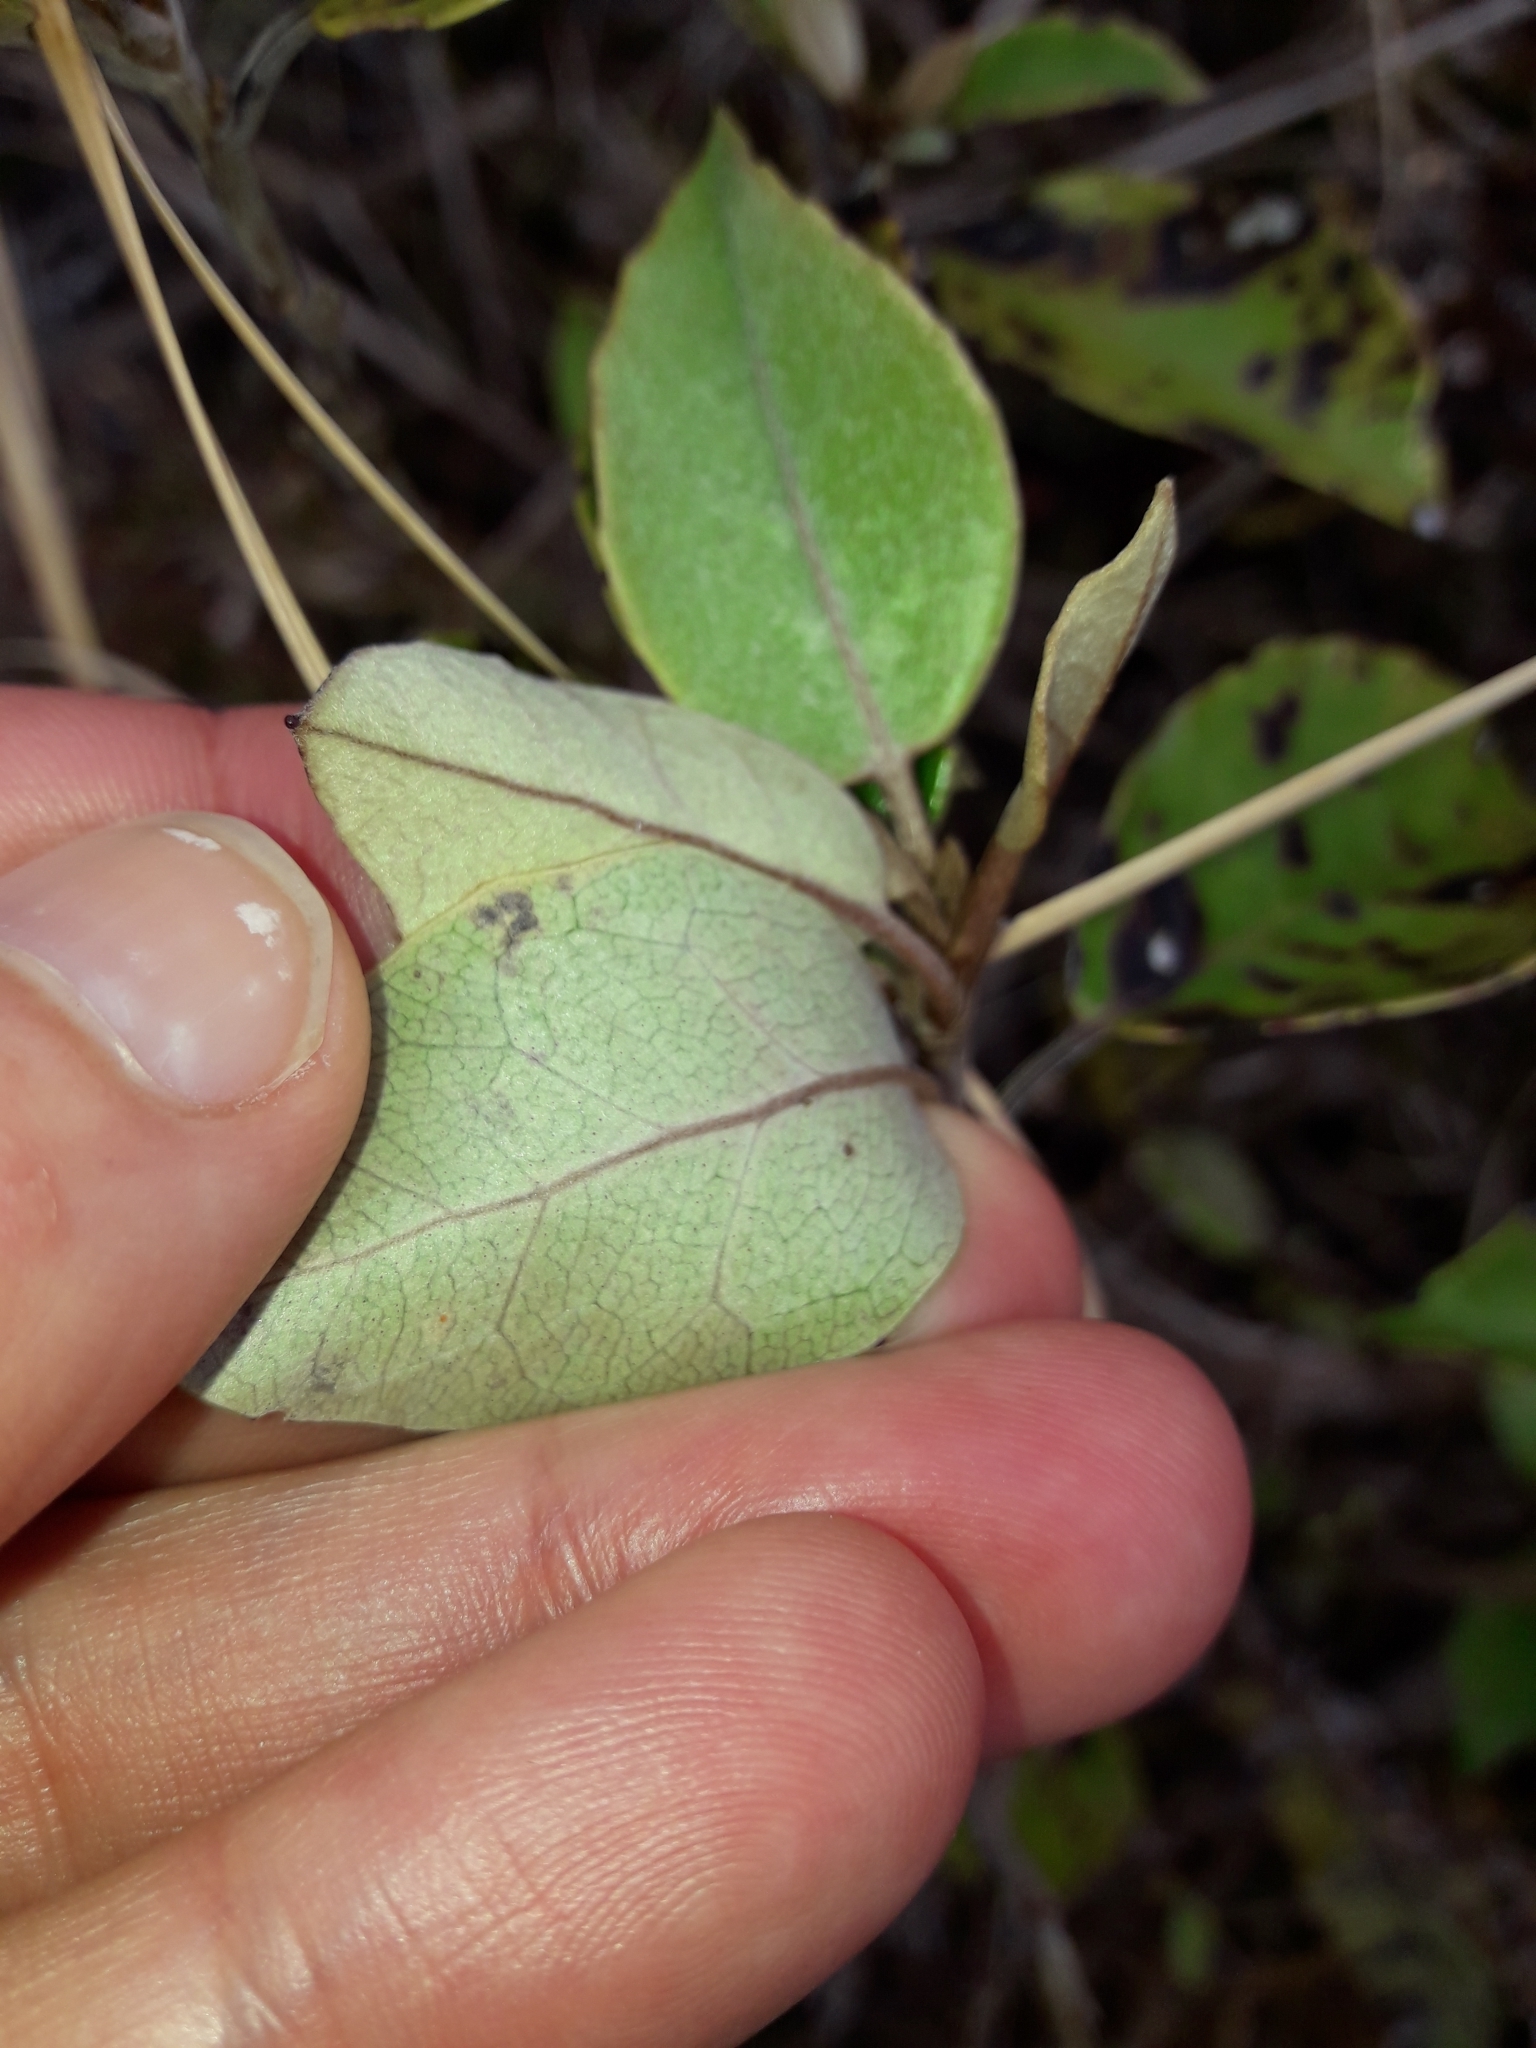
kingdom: Plantae
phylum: Tracheophyta
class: Magnoliopsida
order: Asterales
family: Asteraceae
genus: Olearia
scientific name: Olearia arborescens
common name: Glossy tree daisy
